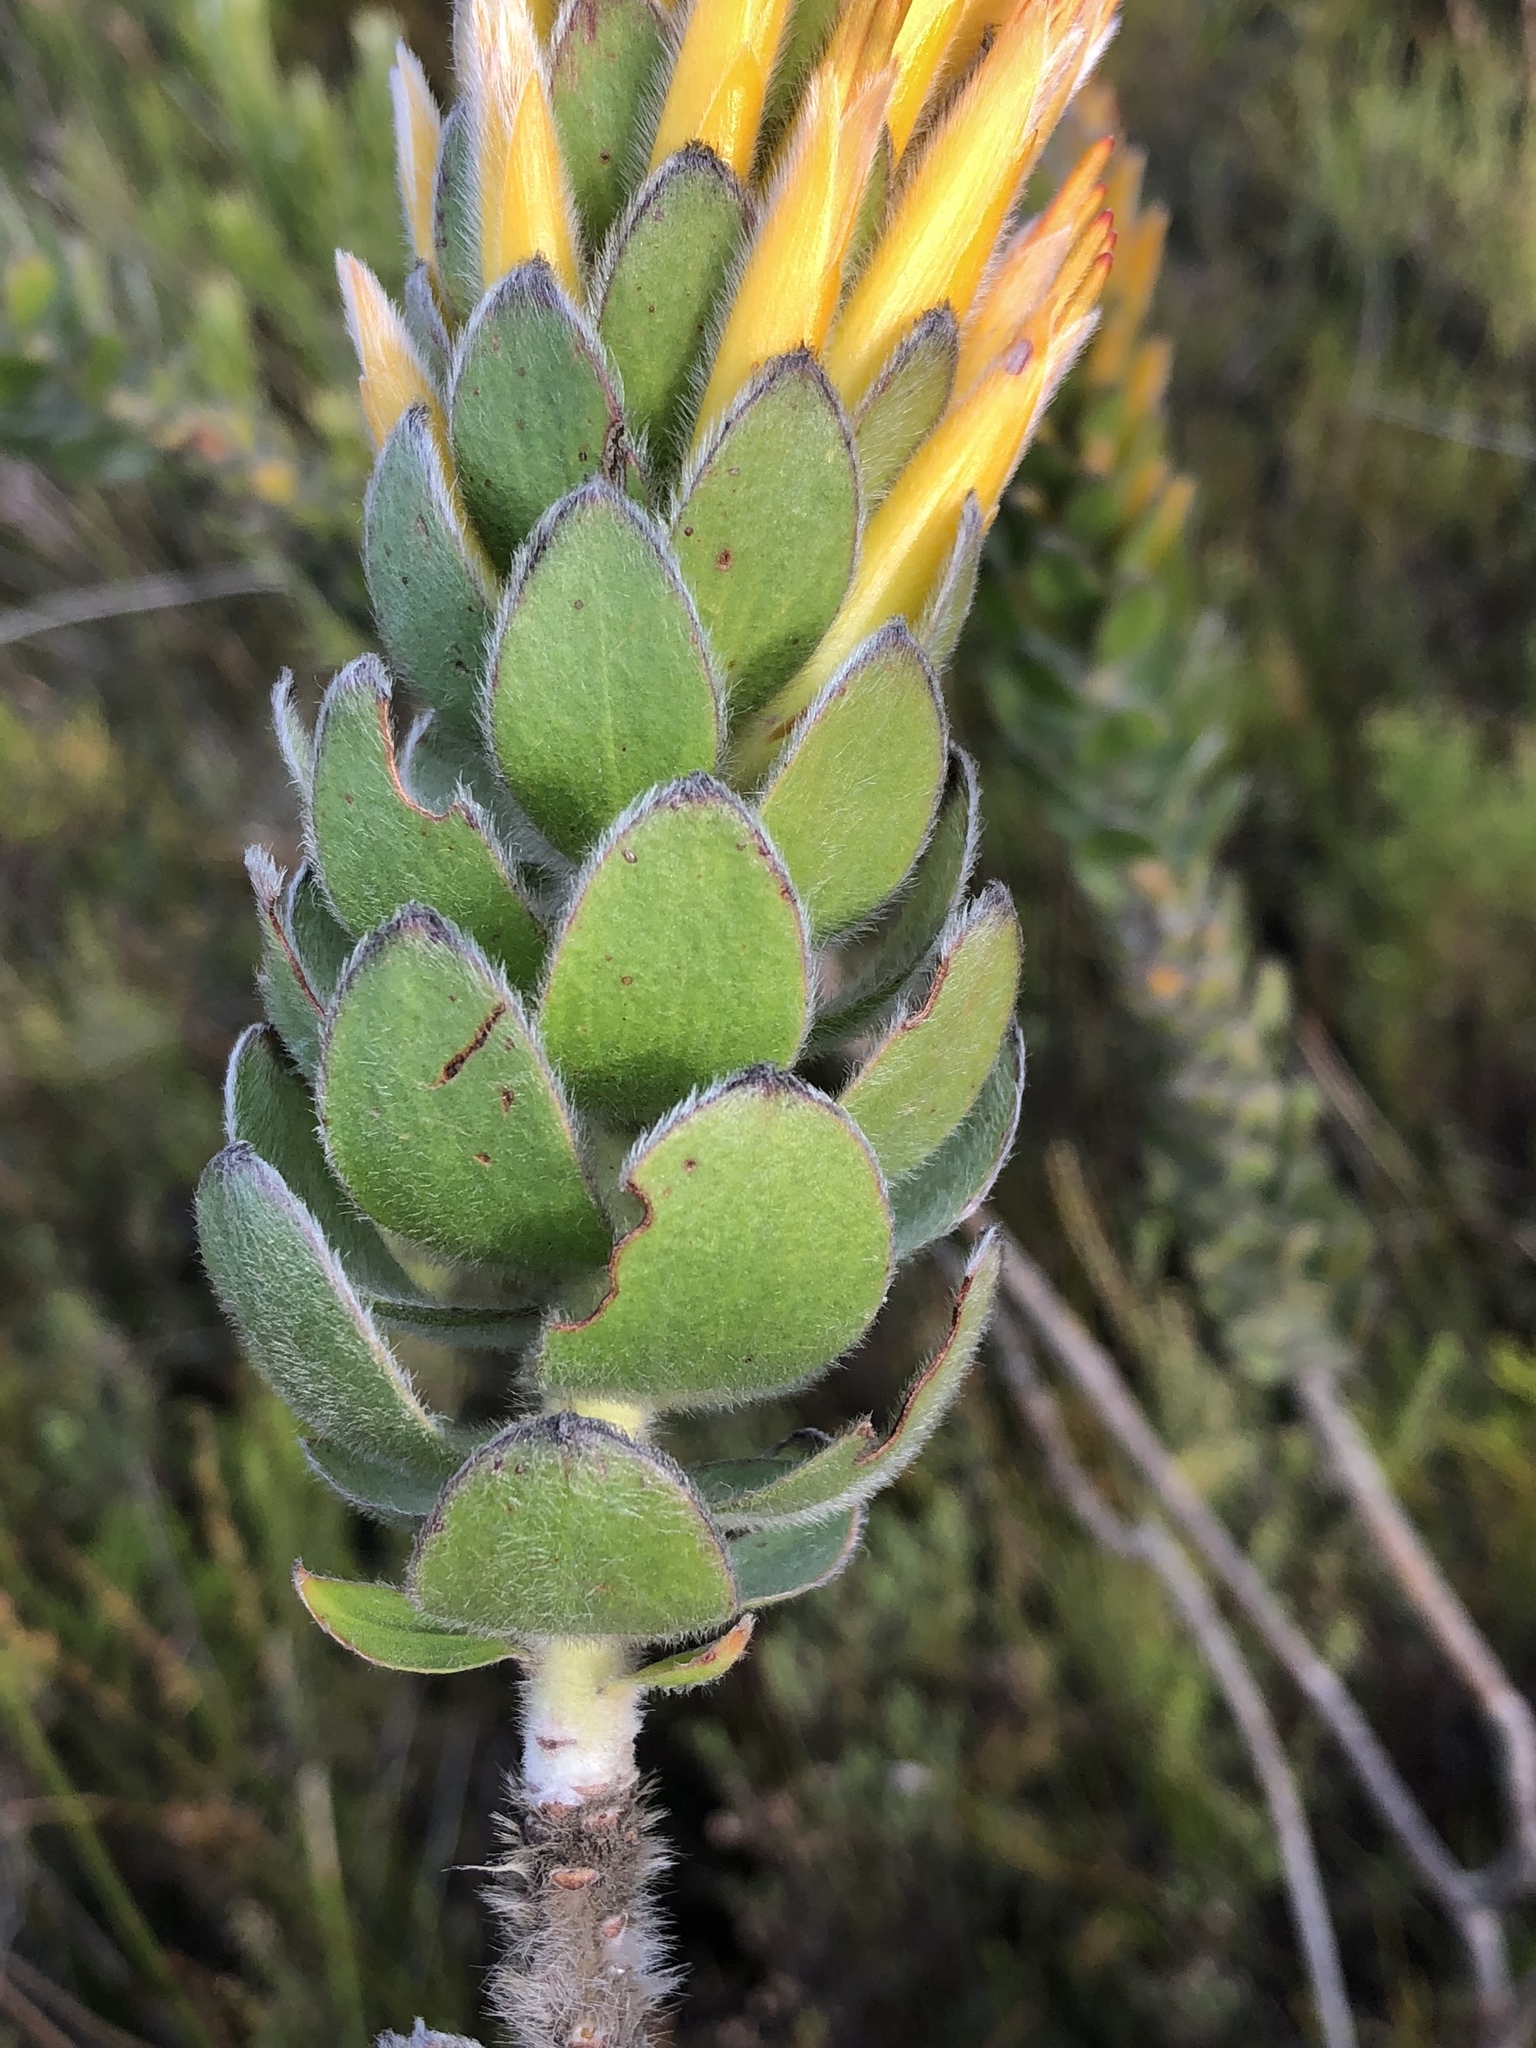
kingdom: Plantae
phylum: Tracheophyta
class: Magnoliopsida
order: Proteales
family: Proteaceae
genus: Mimetes
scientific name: Mimetes pauciflora
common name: Three-flowered pagoda
